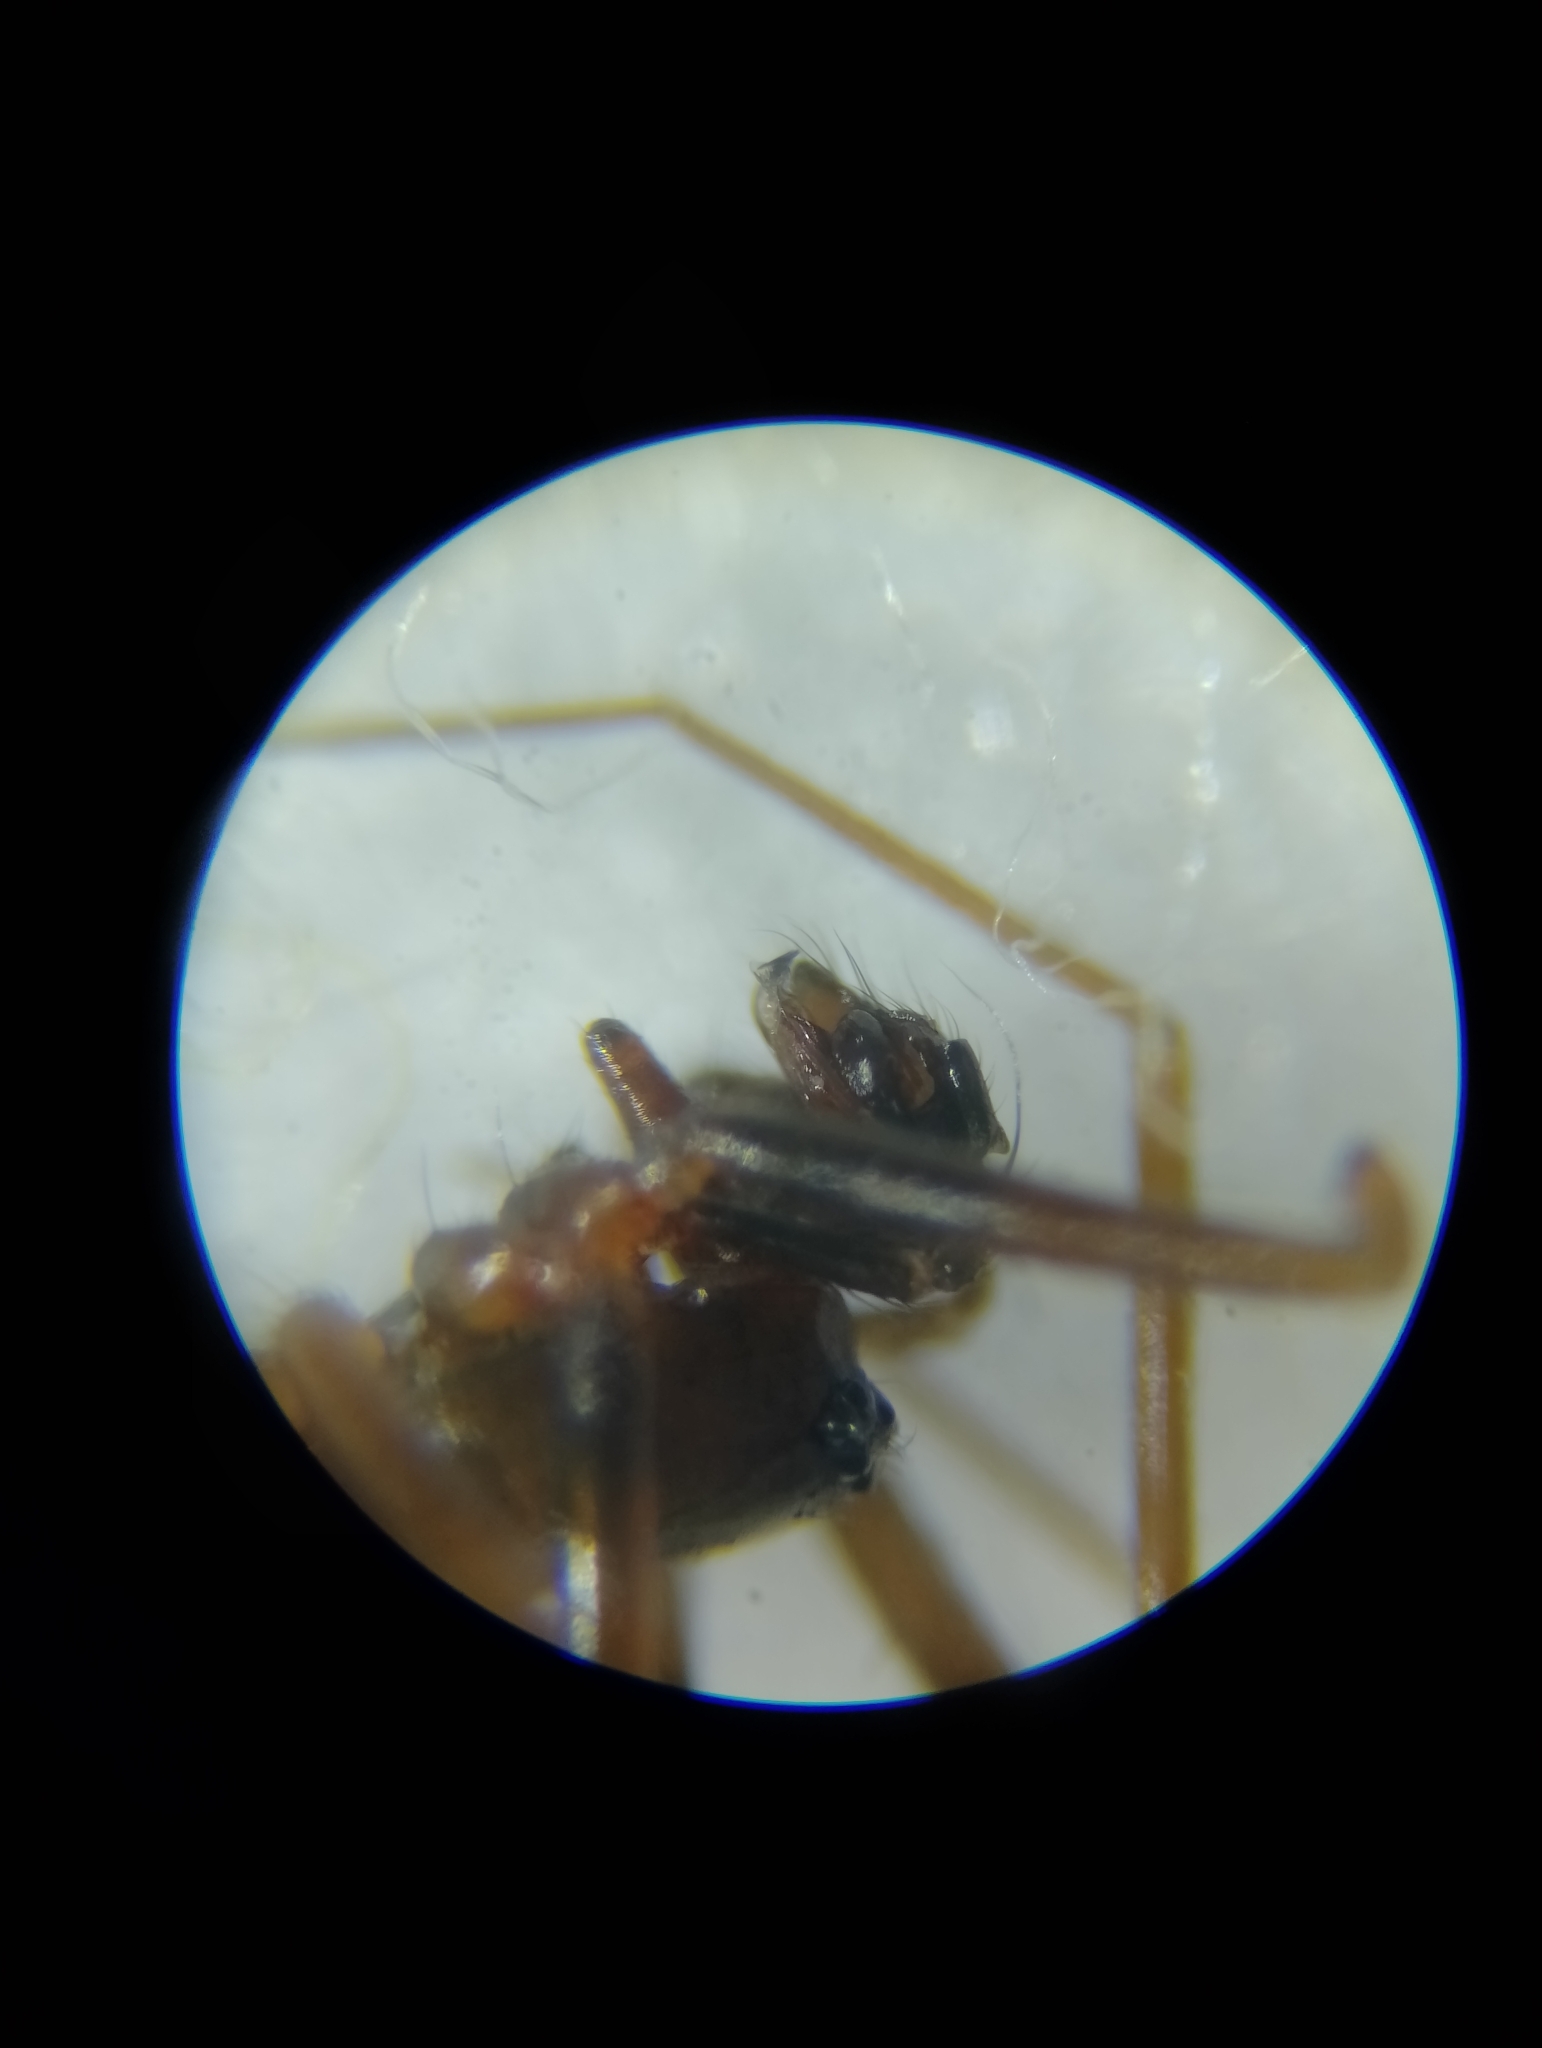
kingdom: Animalia
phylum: Arthropoda
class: Arachnida
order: Araneae
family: Linyphiidae
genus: Diplostyla
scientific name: Diplostyla concolor
